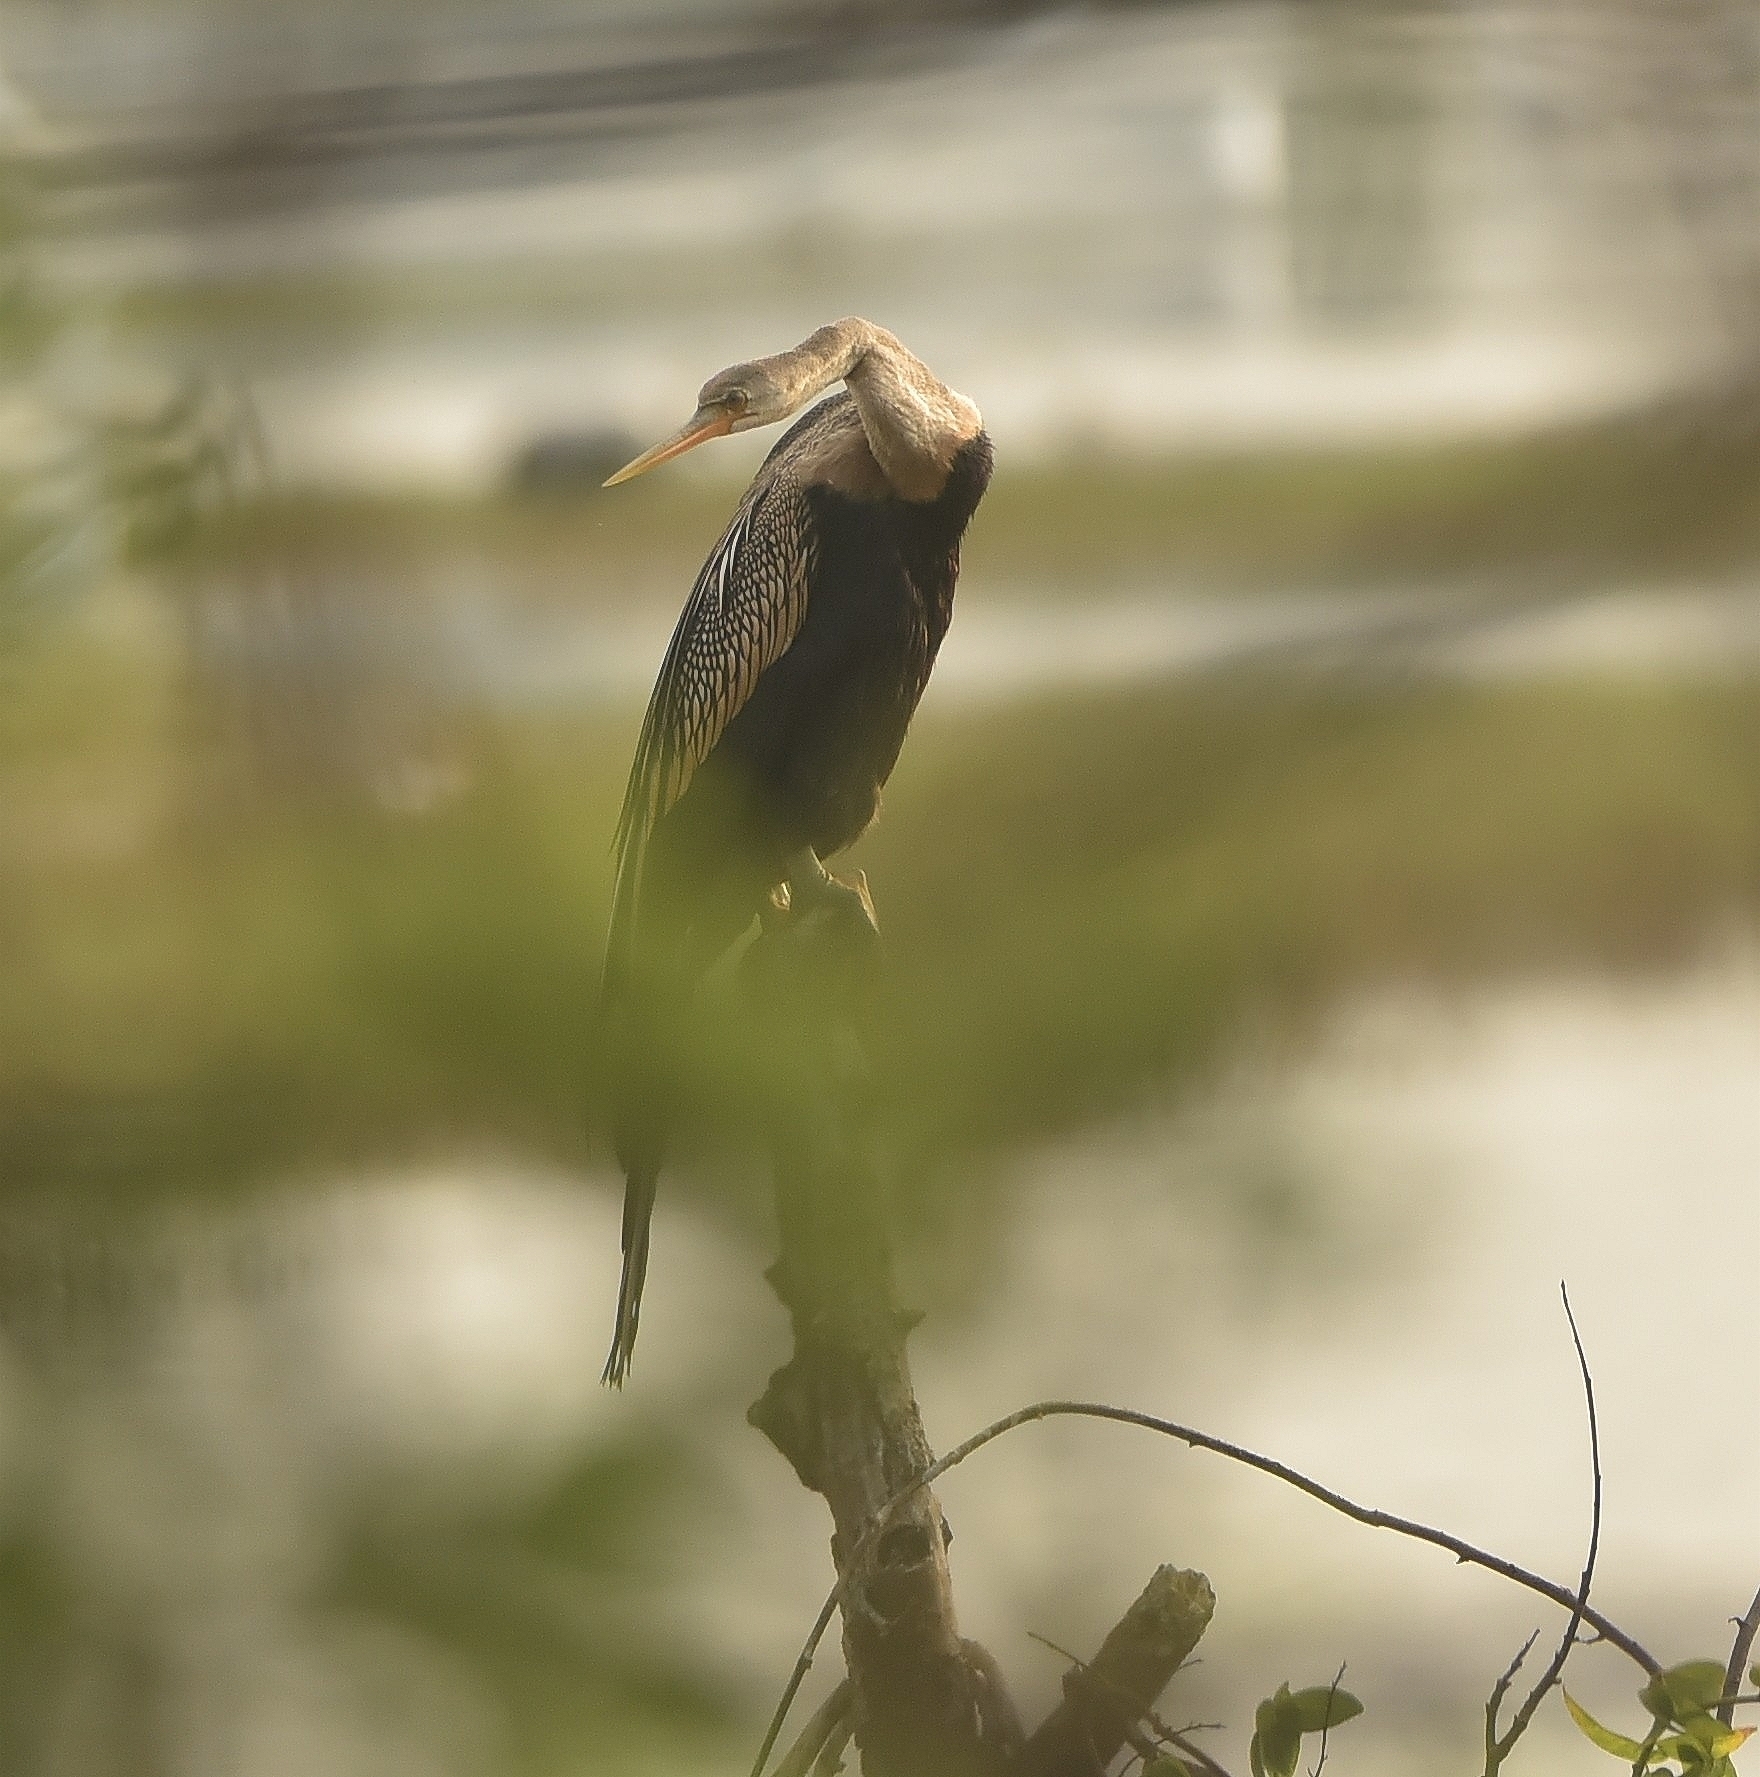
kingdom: Animalia
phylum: Chordata
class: Aves
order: Suliformes
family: Anhingidae
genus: Anhinga
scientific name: Anhinga melanogaster
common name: Oriental darter
